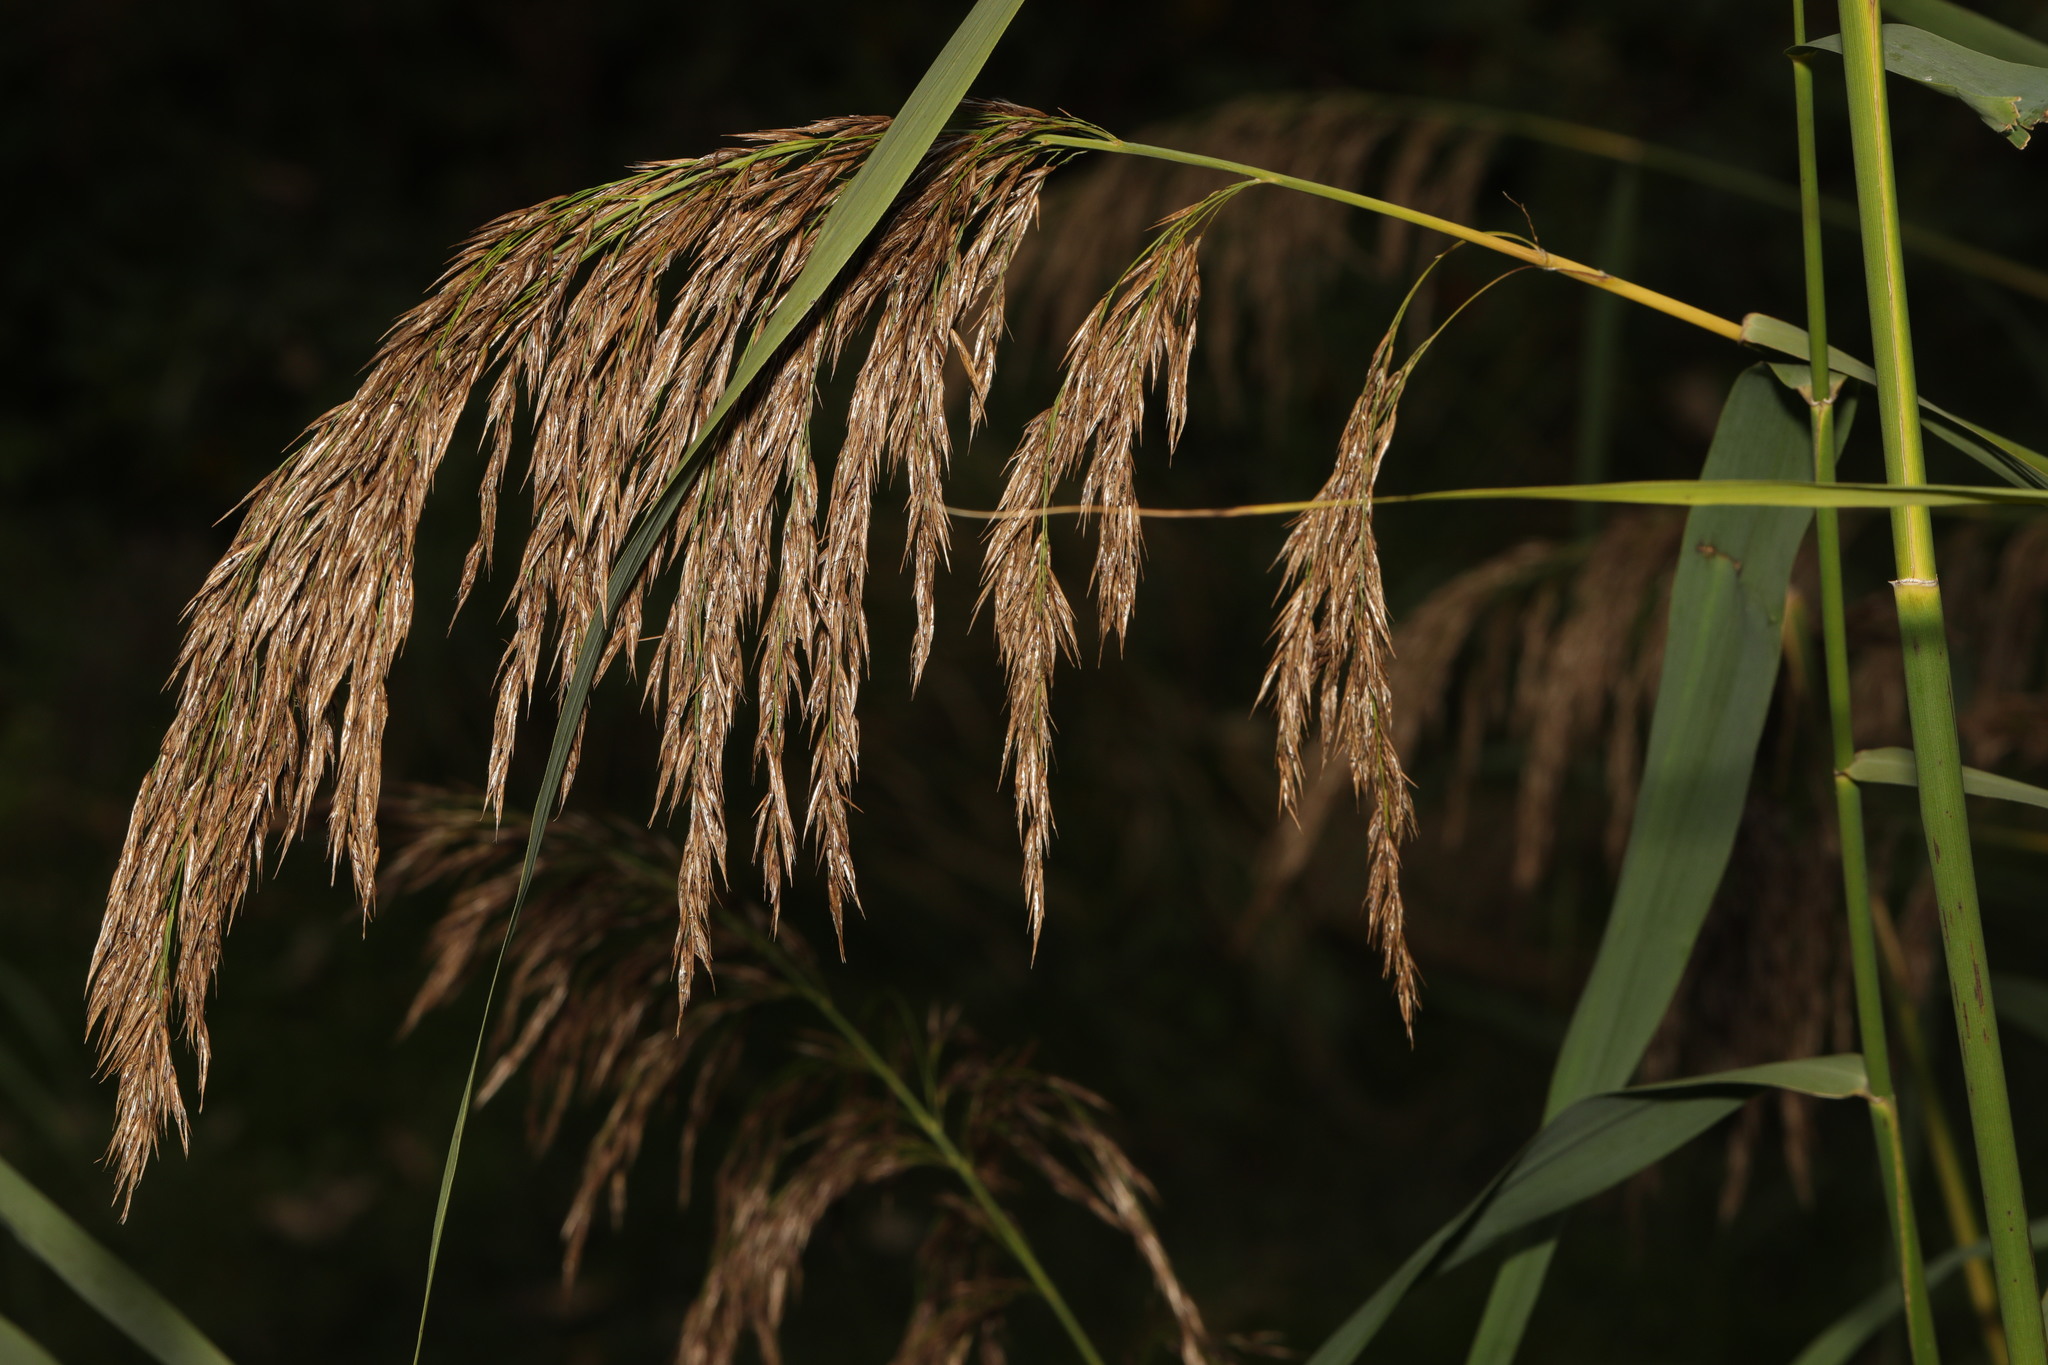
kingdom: Plantae
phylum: Tracheophyta
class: Liliopsida
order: Poales
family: Poaceae
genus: Phragmites
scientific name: Phragmites australis
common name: Common reed
